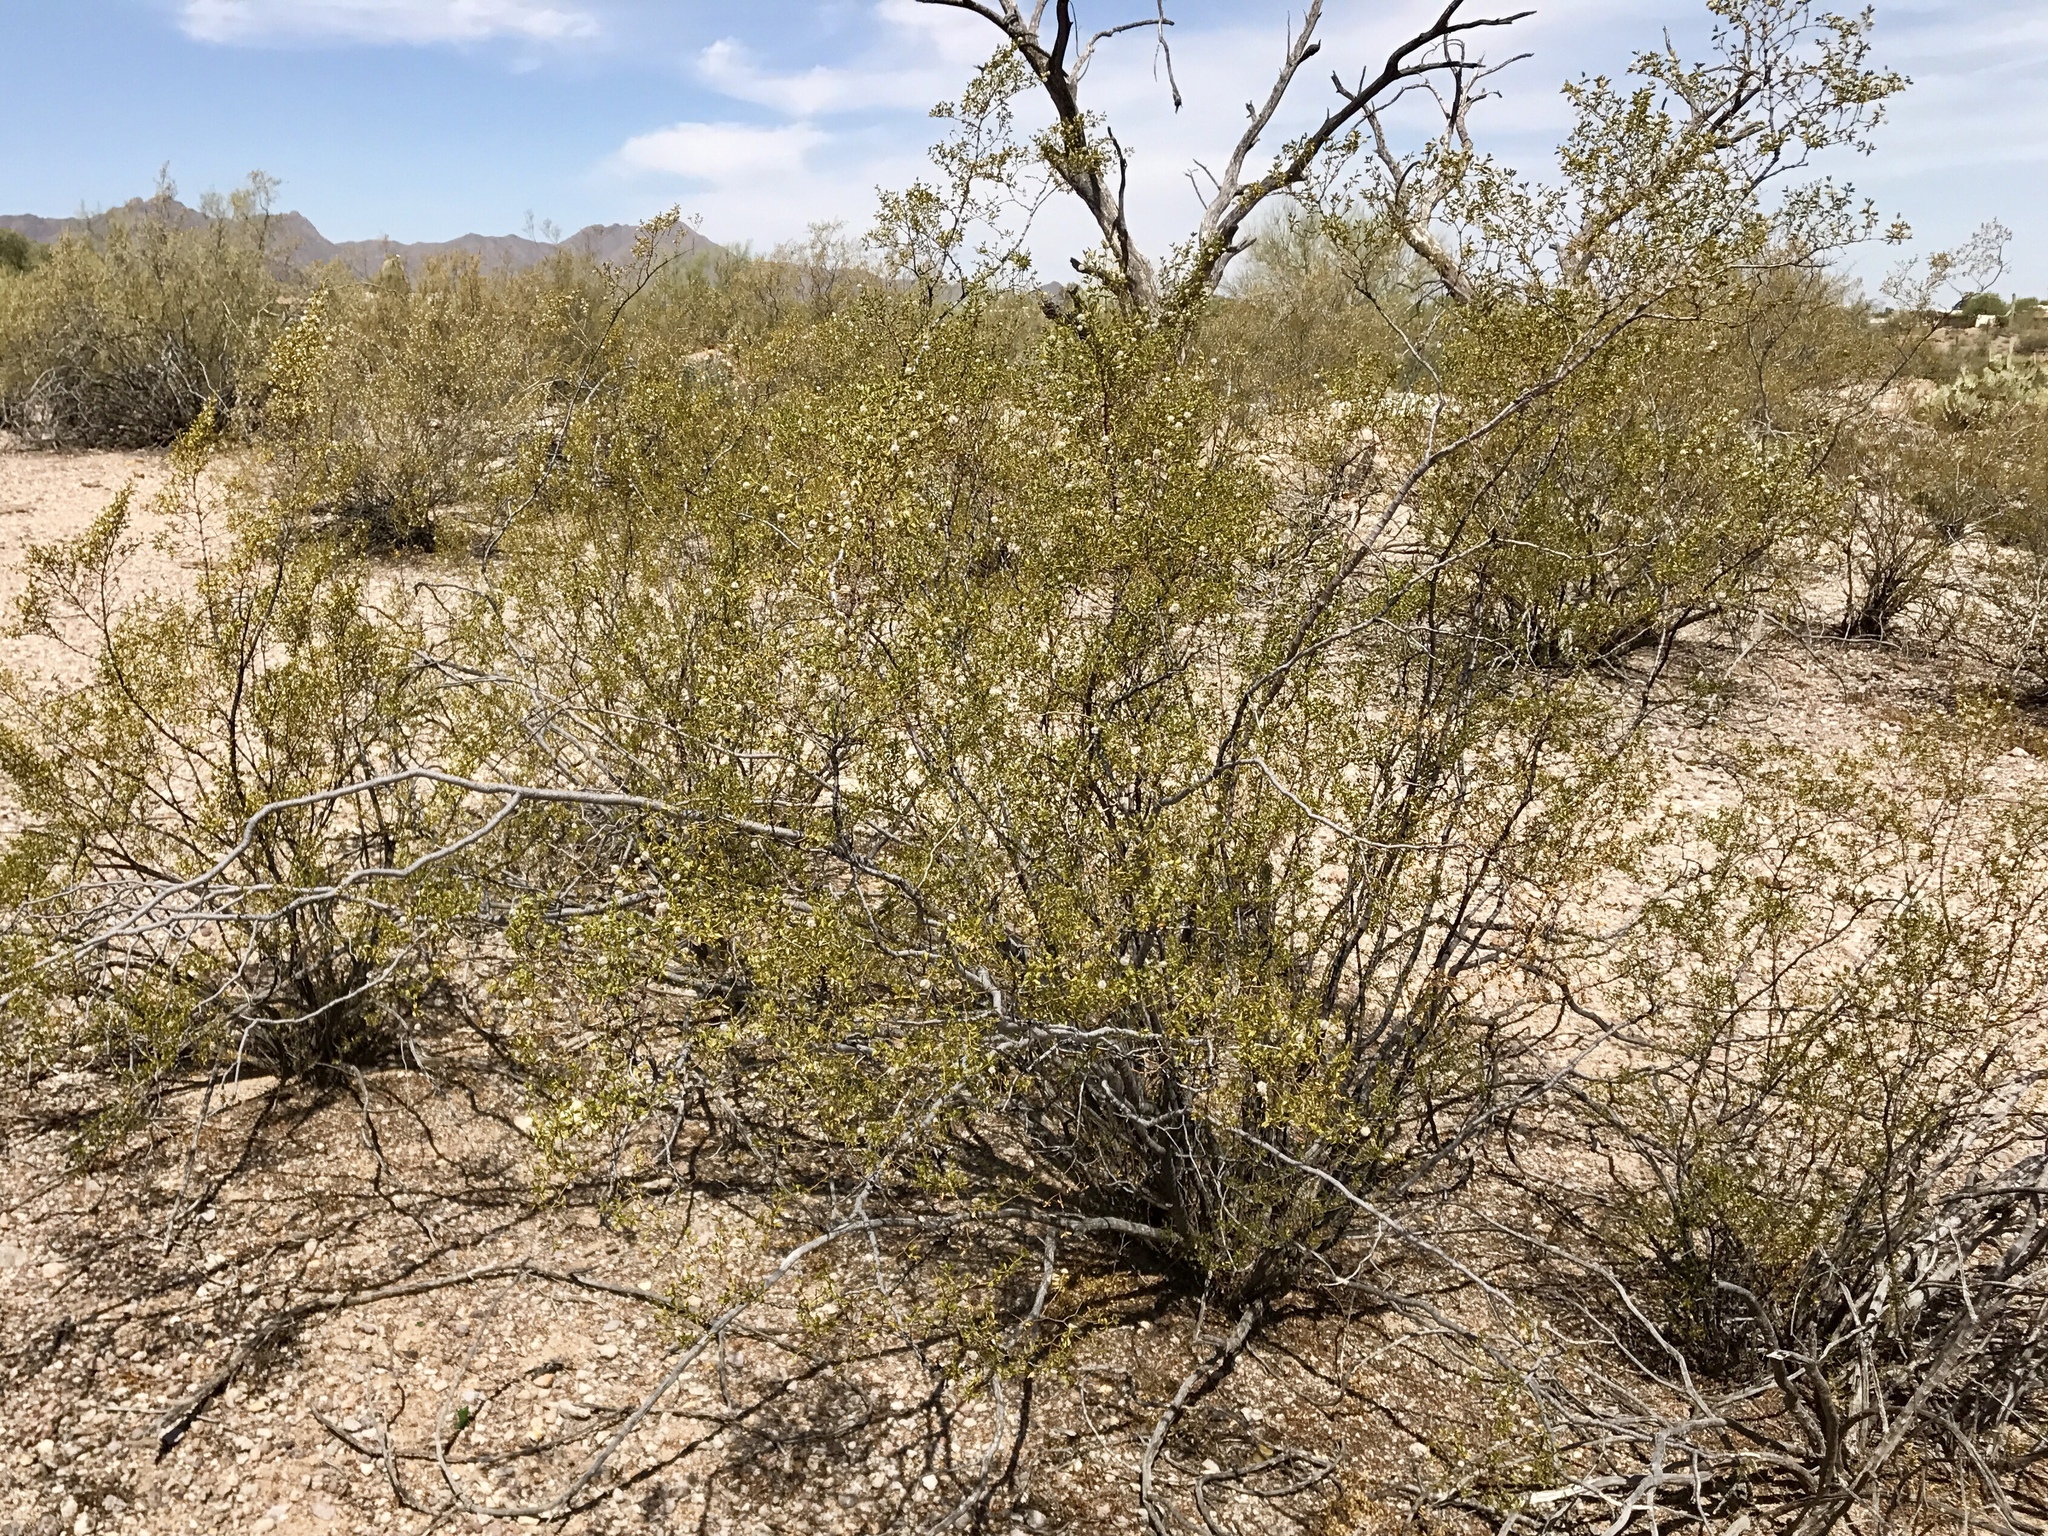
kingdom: Plantae
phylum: Tracheophyta
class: Magnoliopsida
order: Zygophyllales
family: Zygophyllaceae
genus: Larrea
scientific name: Larrea tridentata
